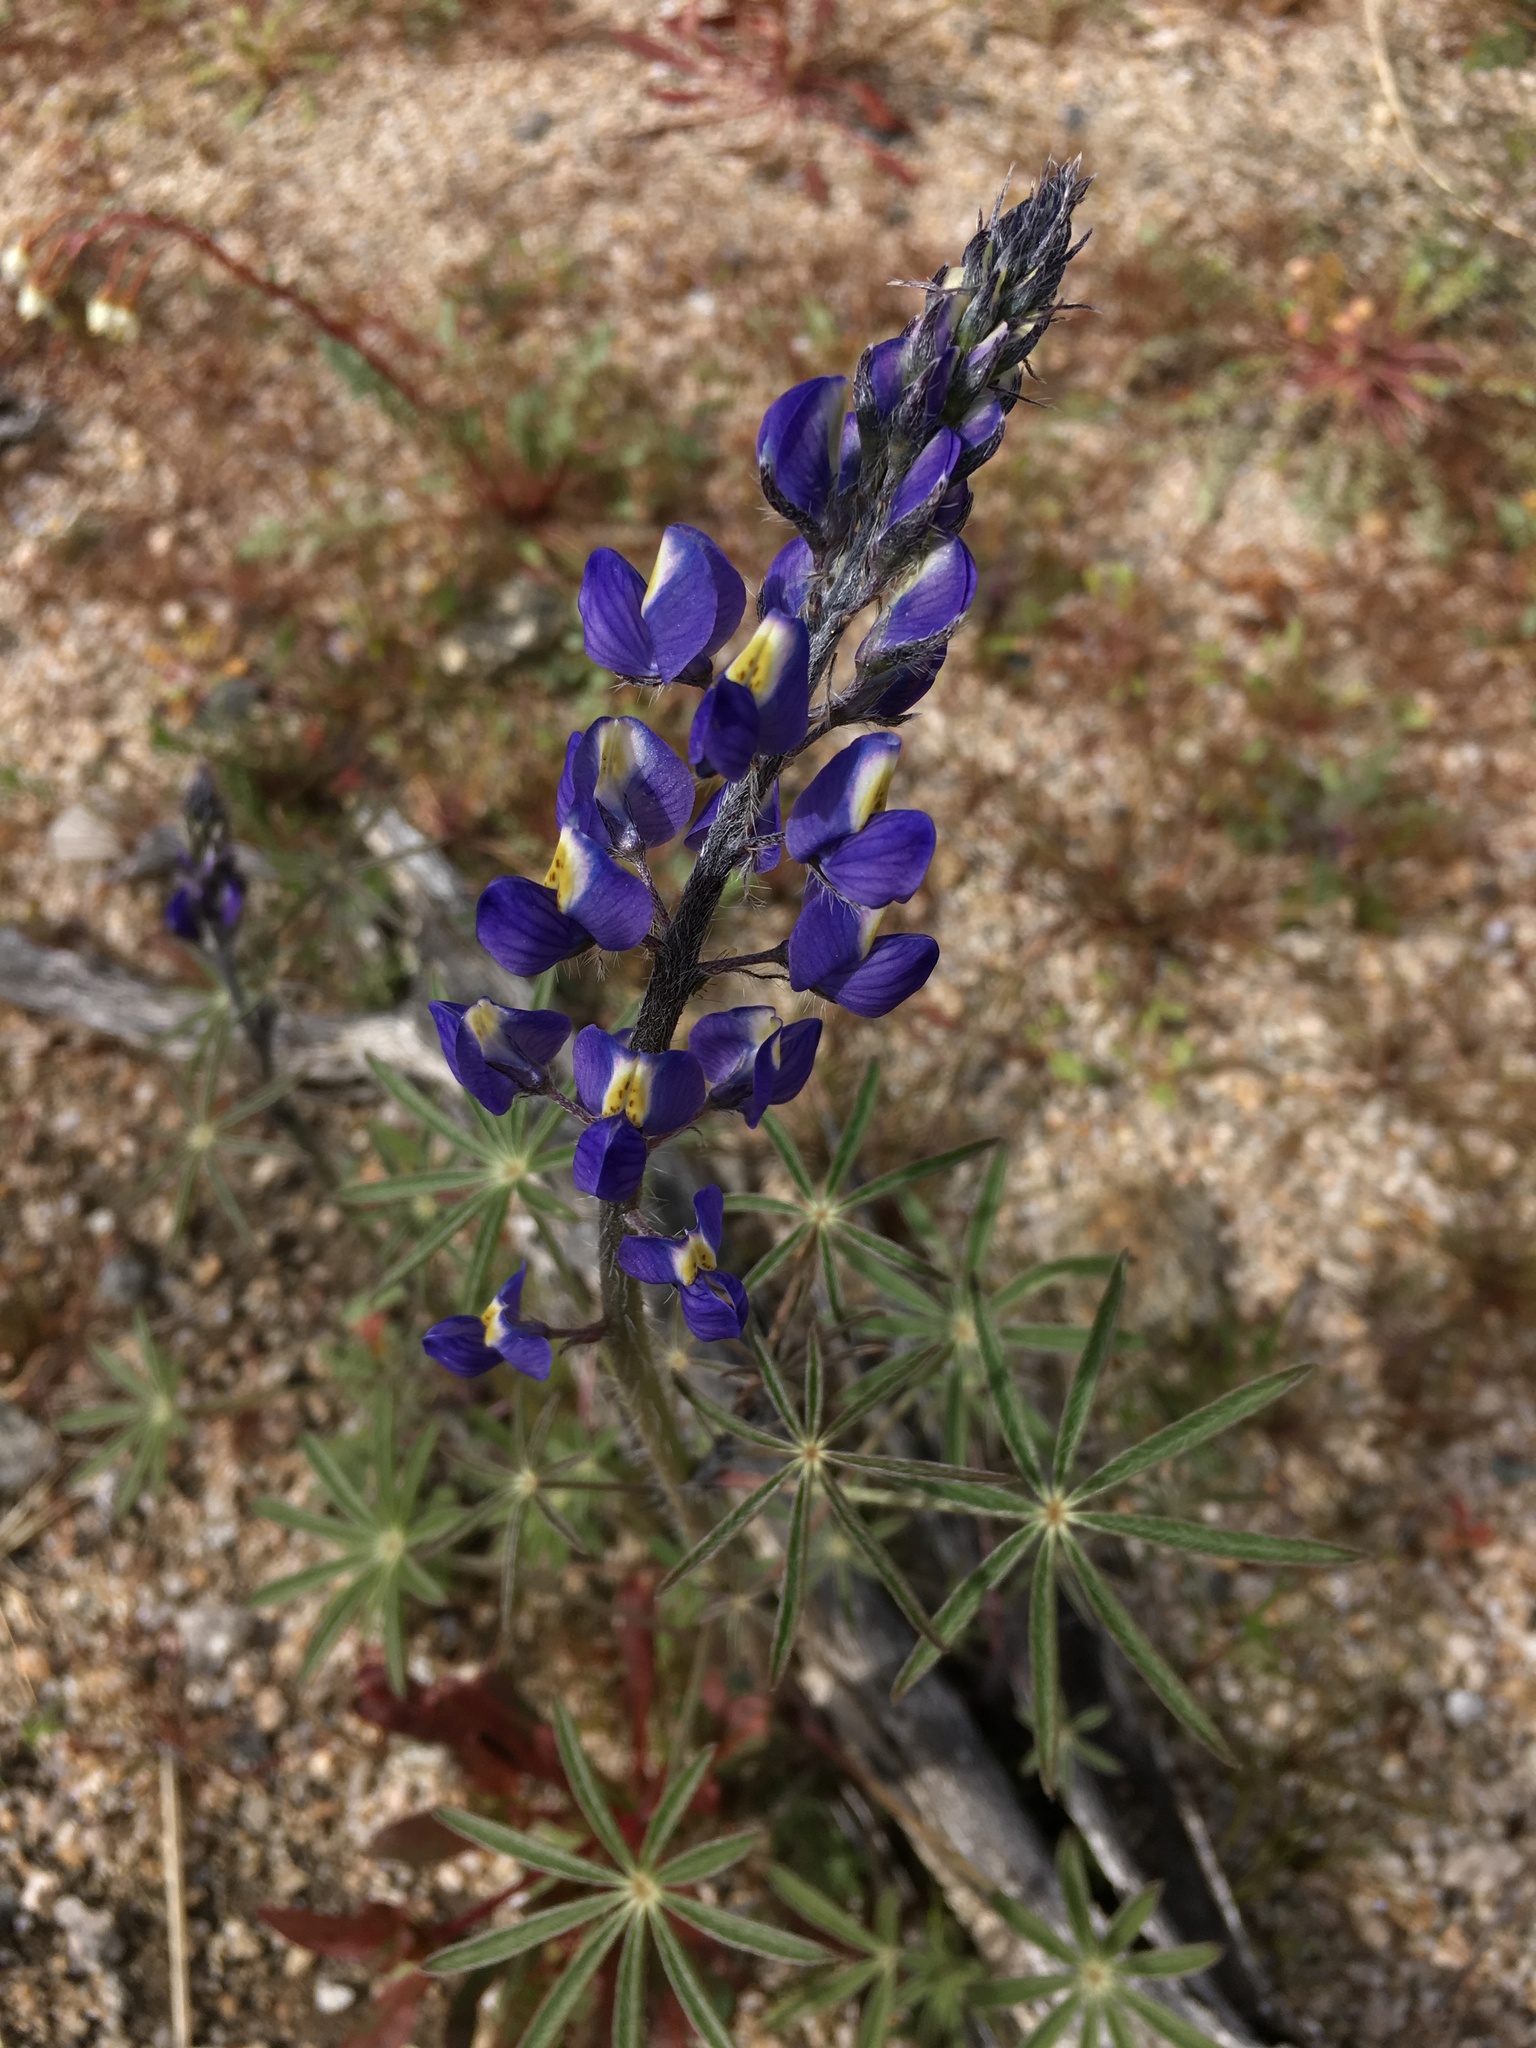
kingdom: Plantae
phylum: Tracheophyta
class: Magnoliopsida
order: Fabales
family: Fabaceae
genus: Lupinus
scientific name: Lupinus sparsiflorus
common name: Coulter's lupine
